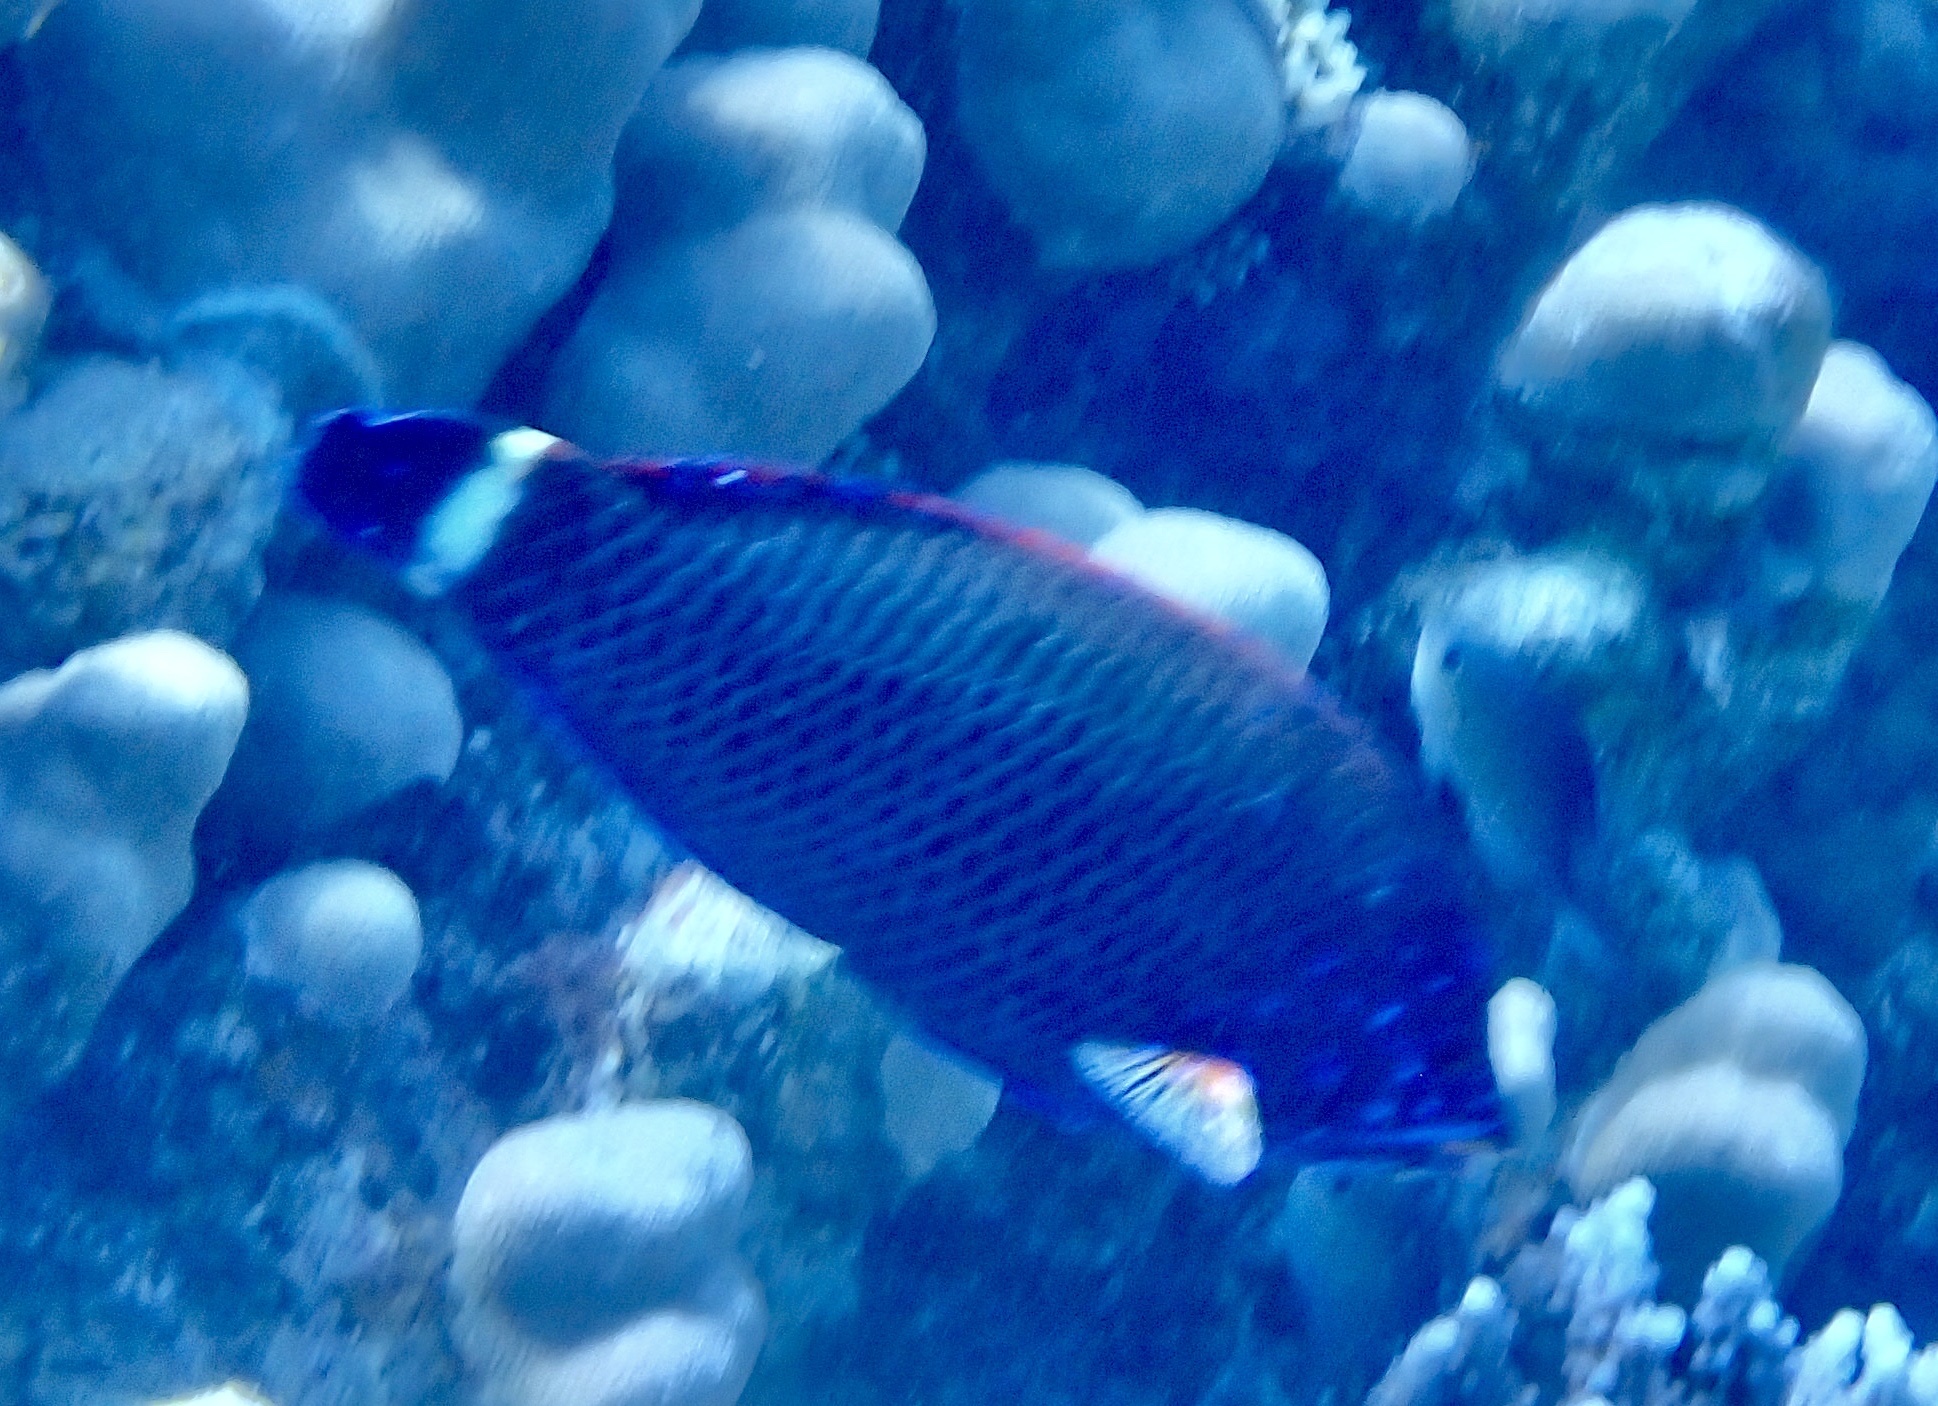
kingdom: Animalia
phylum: Chordata
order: Perciformes
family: Labridae
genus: Pseudodax
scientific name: Pseudodax moluccanus
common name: Chiseltooth wrasse
